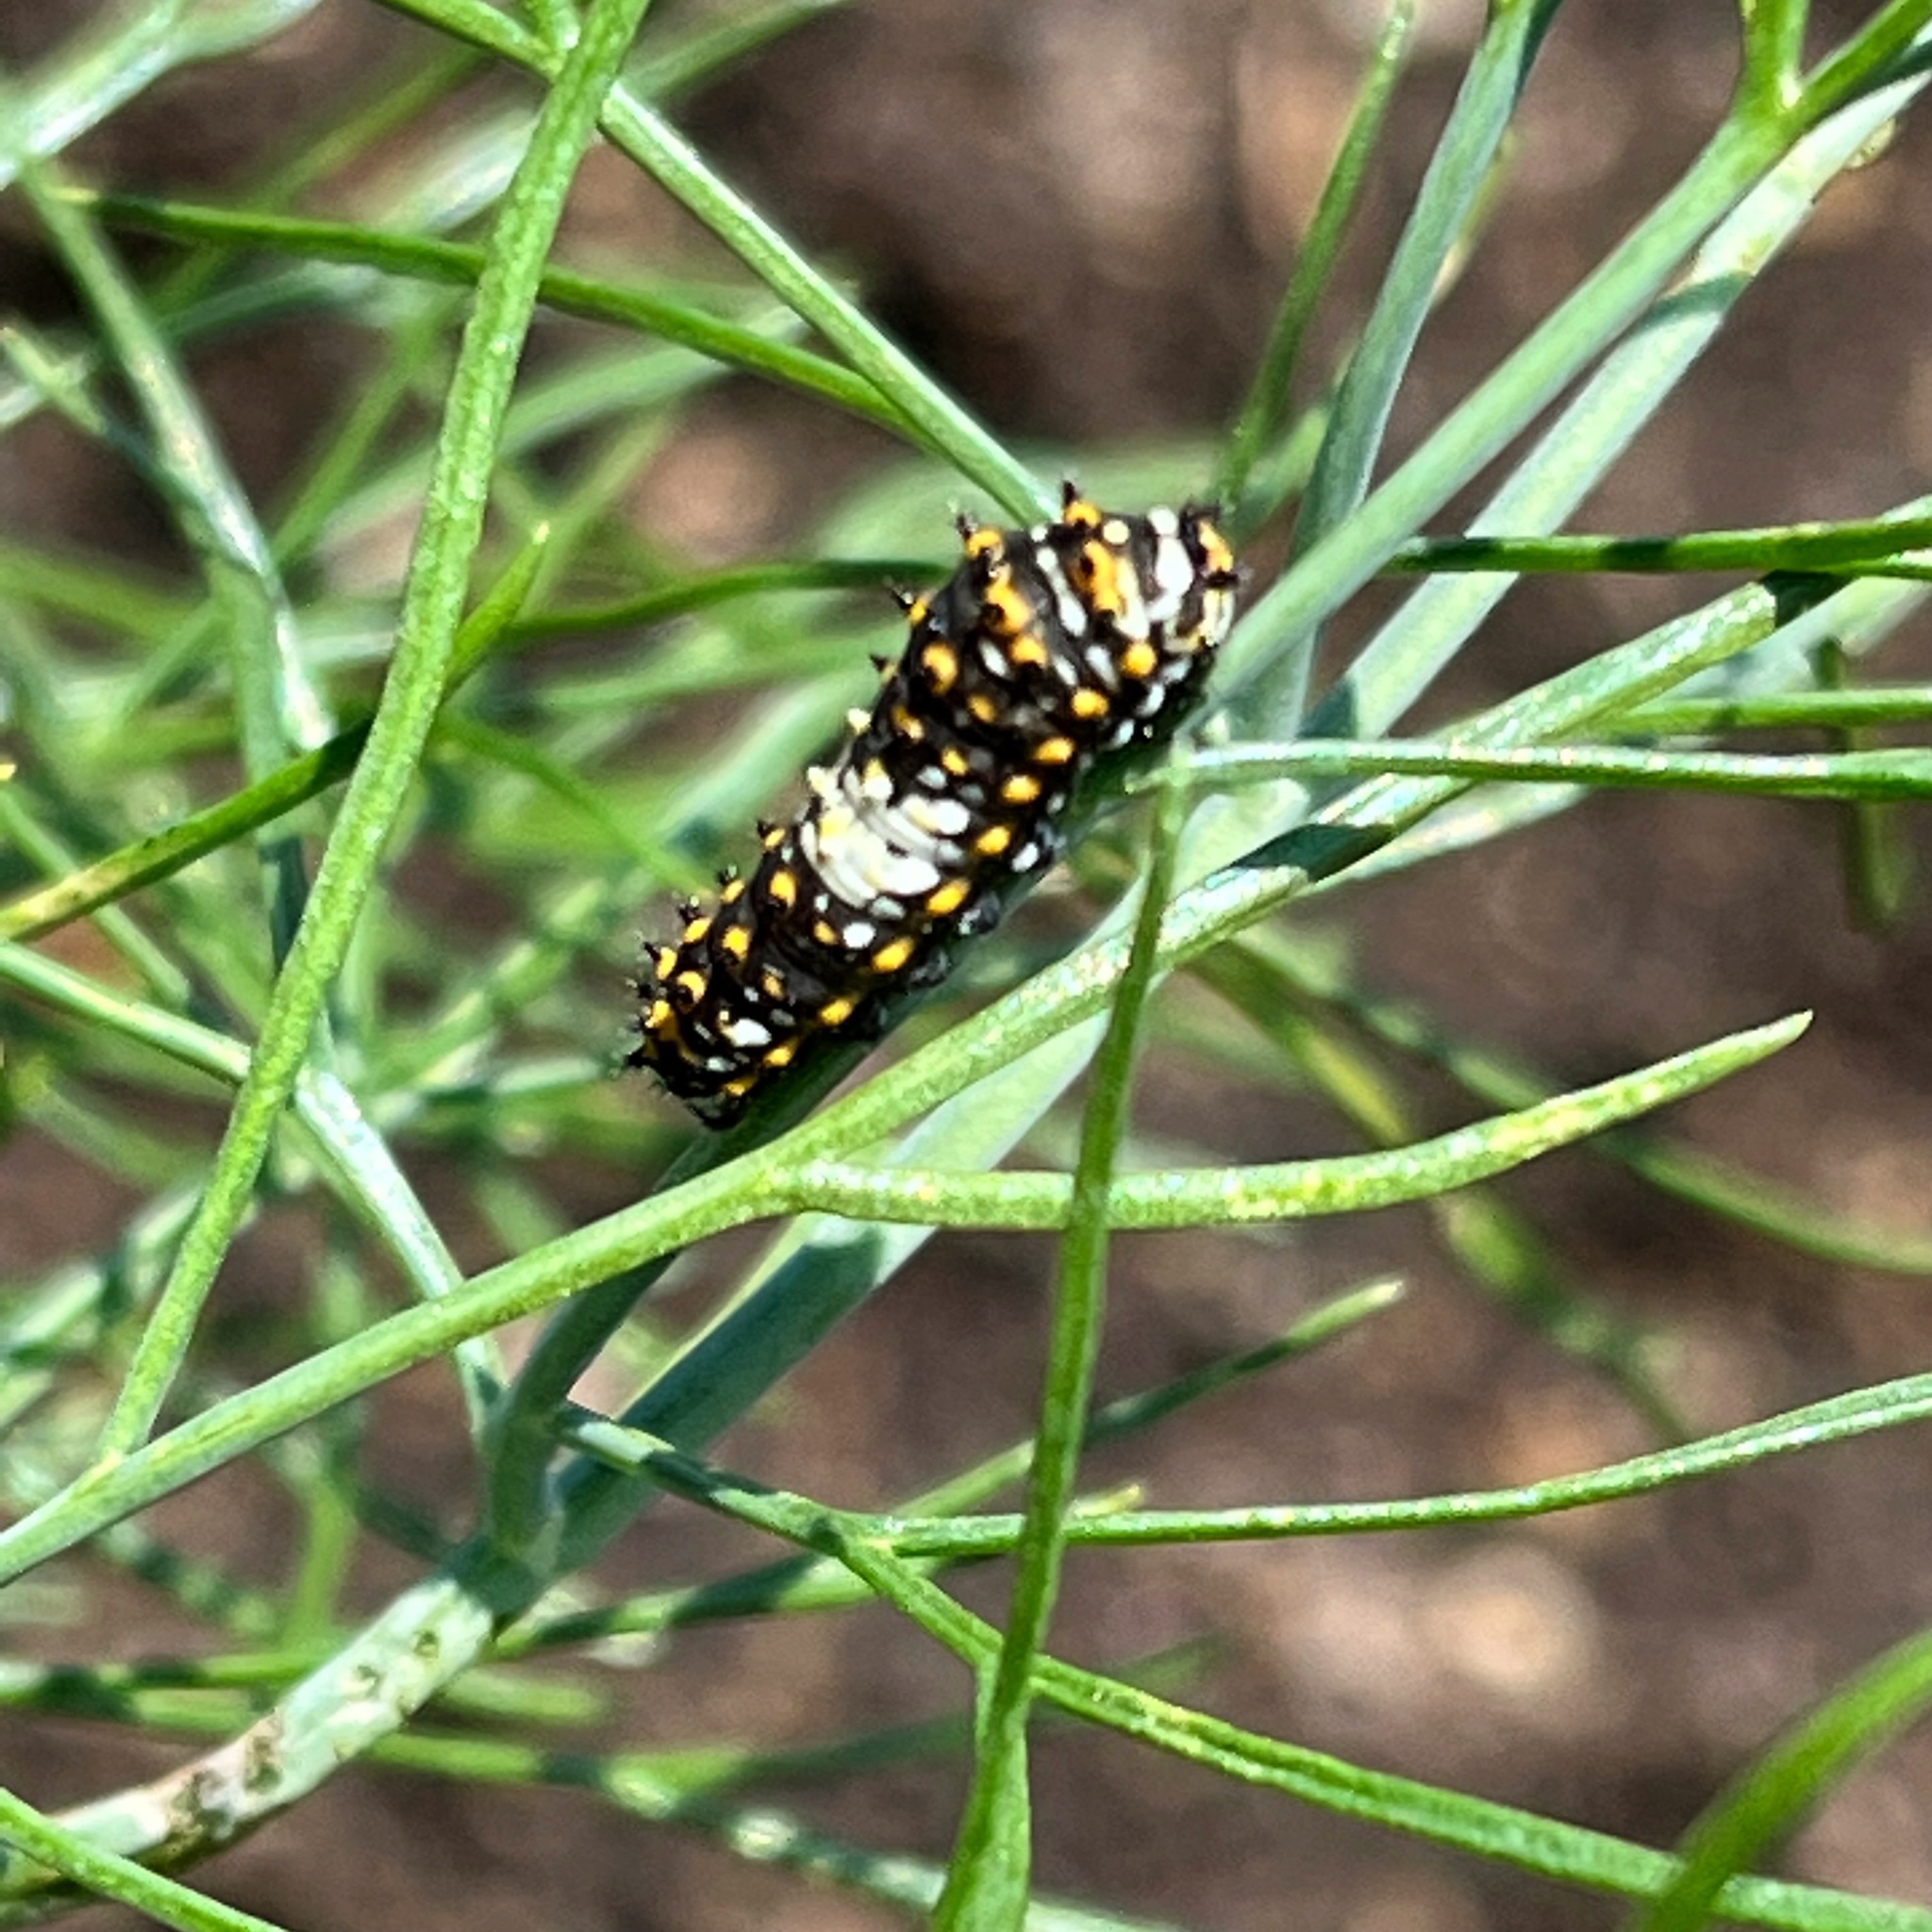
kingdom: Animalia
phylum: Arthropoda
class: Insecta
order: Lepidoptera
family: Papilionidae
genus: Papilio
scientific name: Papilio polyxenes
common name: Black swallowtail
